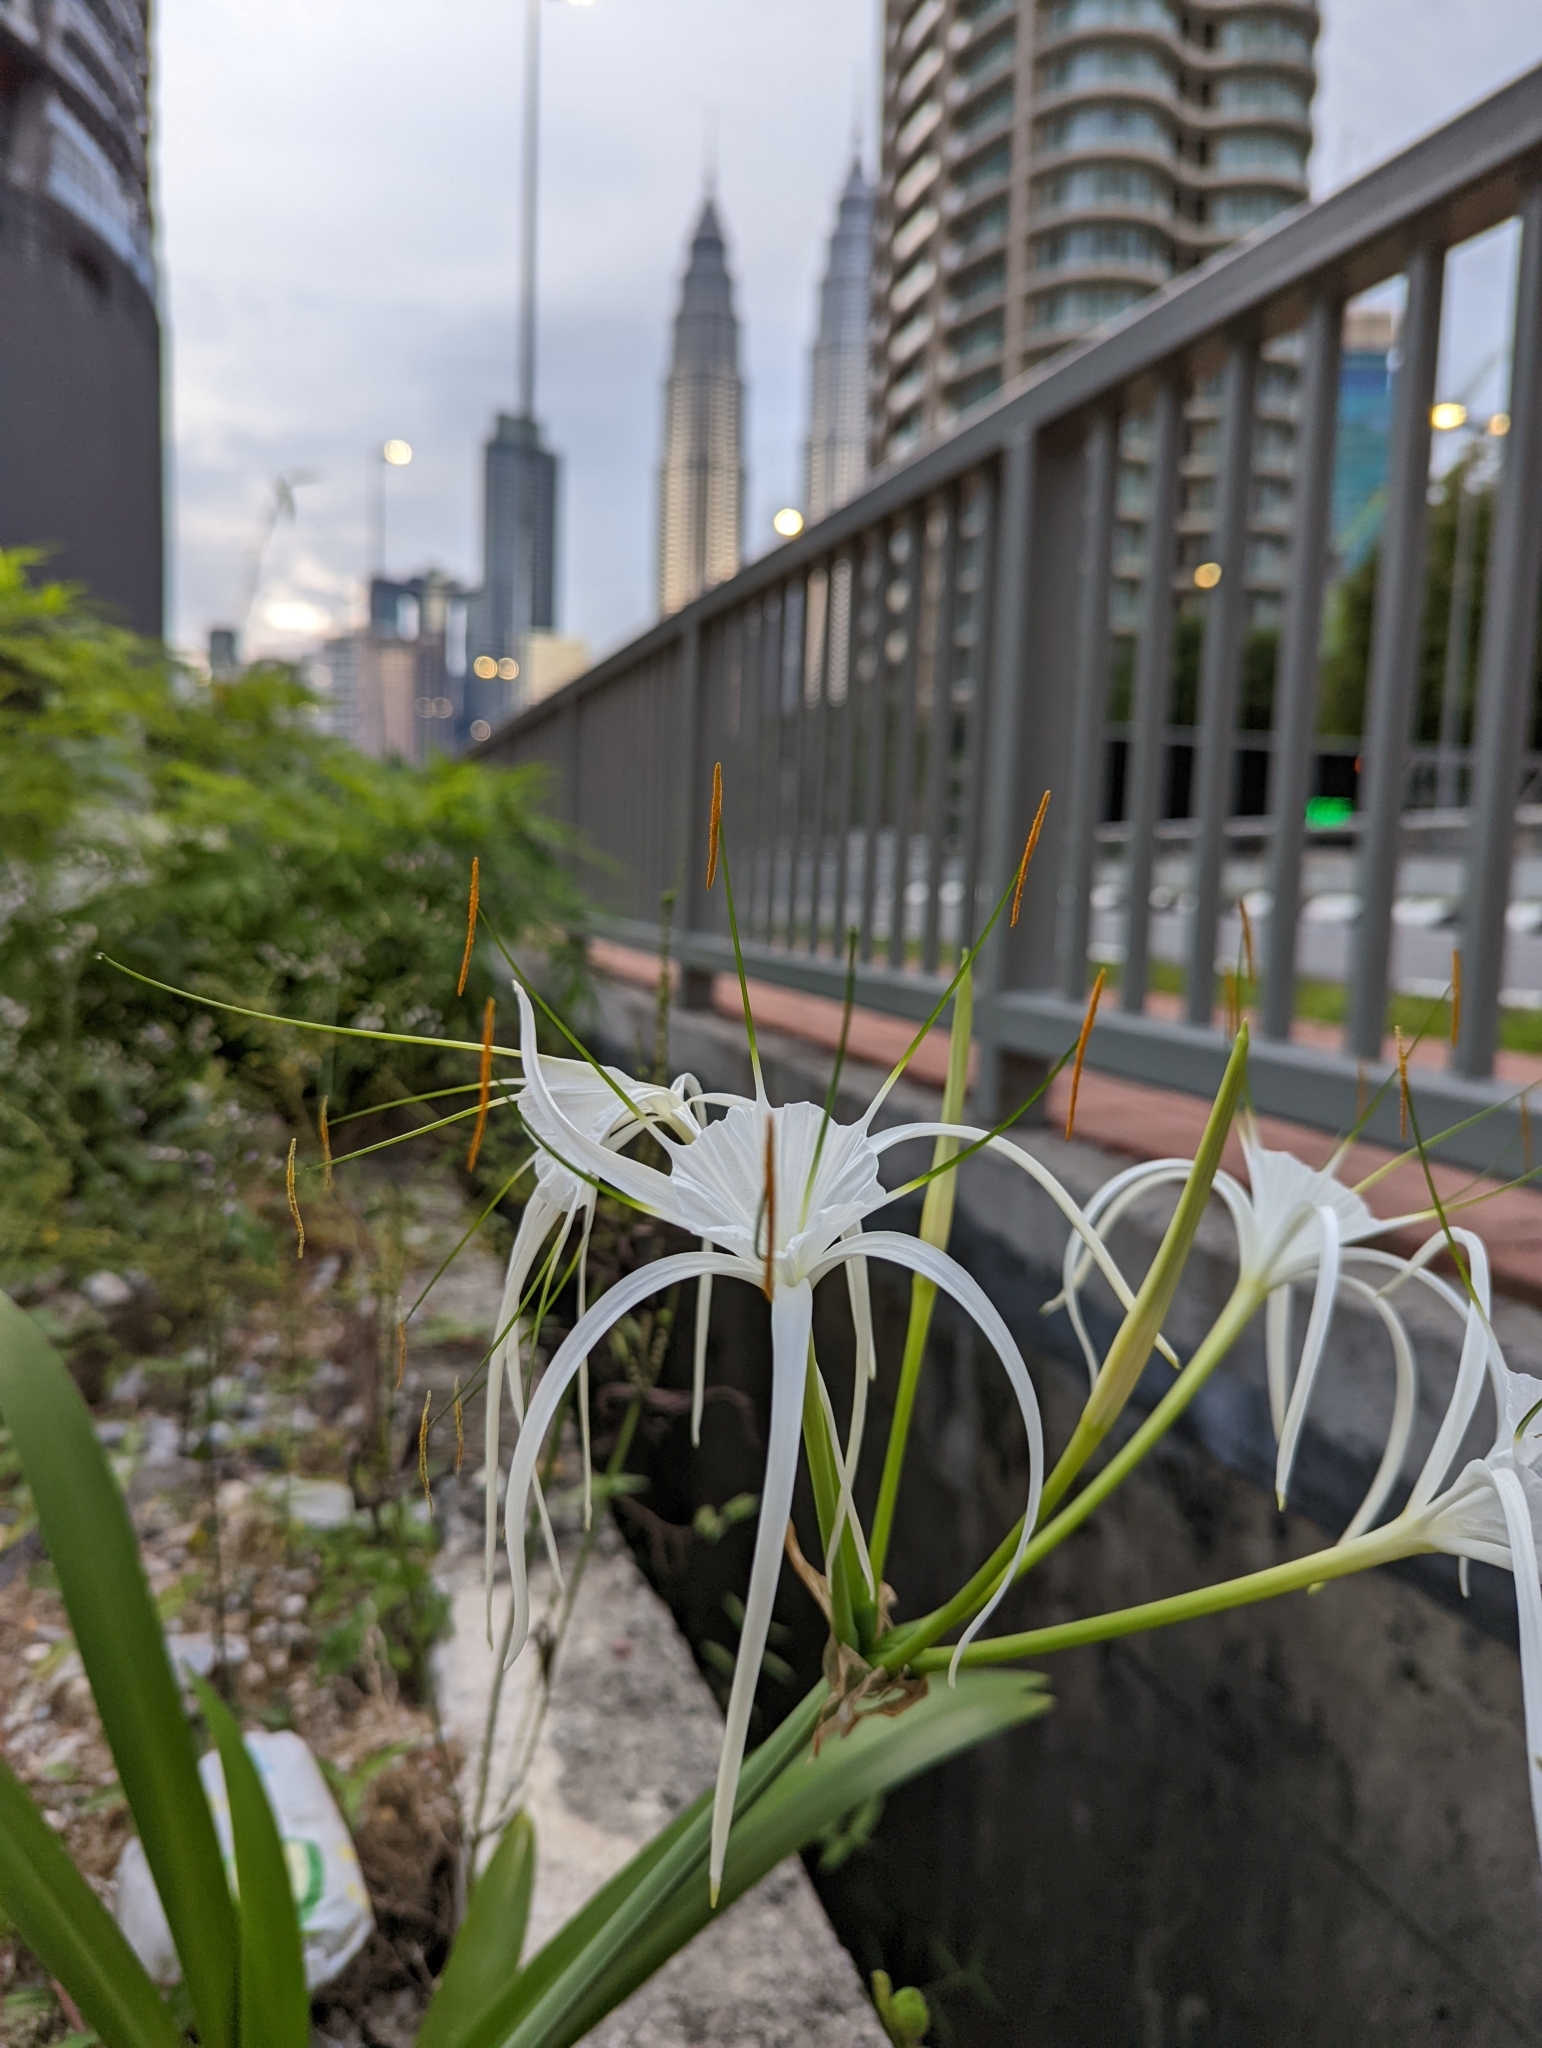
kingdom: Plantae
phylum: Tracheophyta
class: Liliopsida
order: Asparagales
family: Amaryllidaceae
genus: Hymenocallis
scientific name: Hymenocallis littoralis
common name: Beach spiderlily
